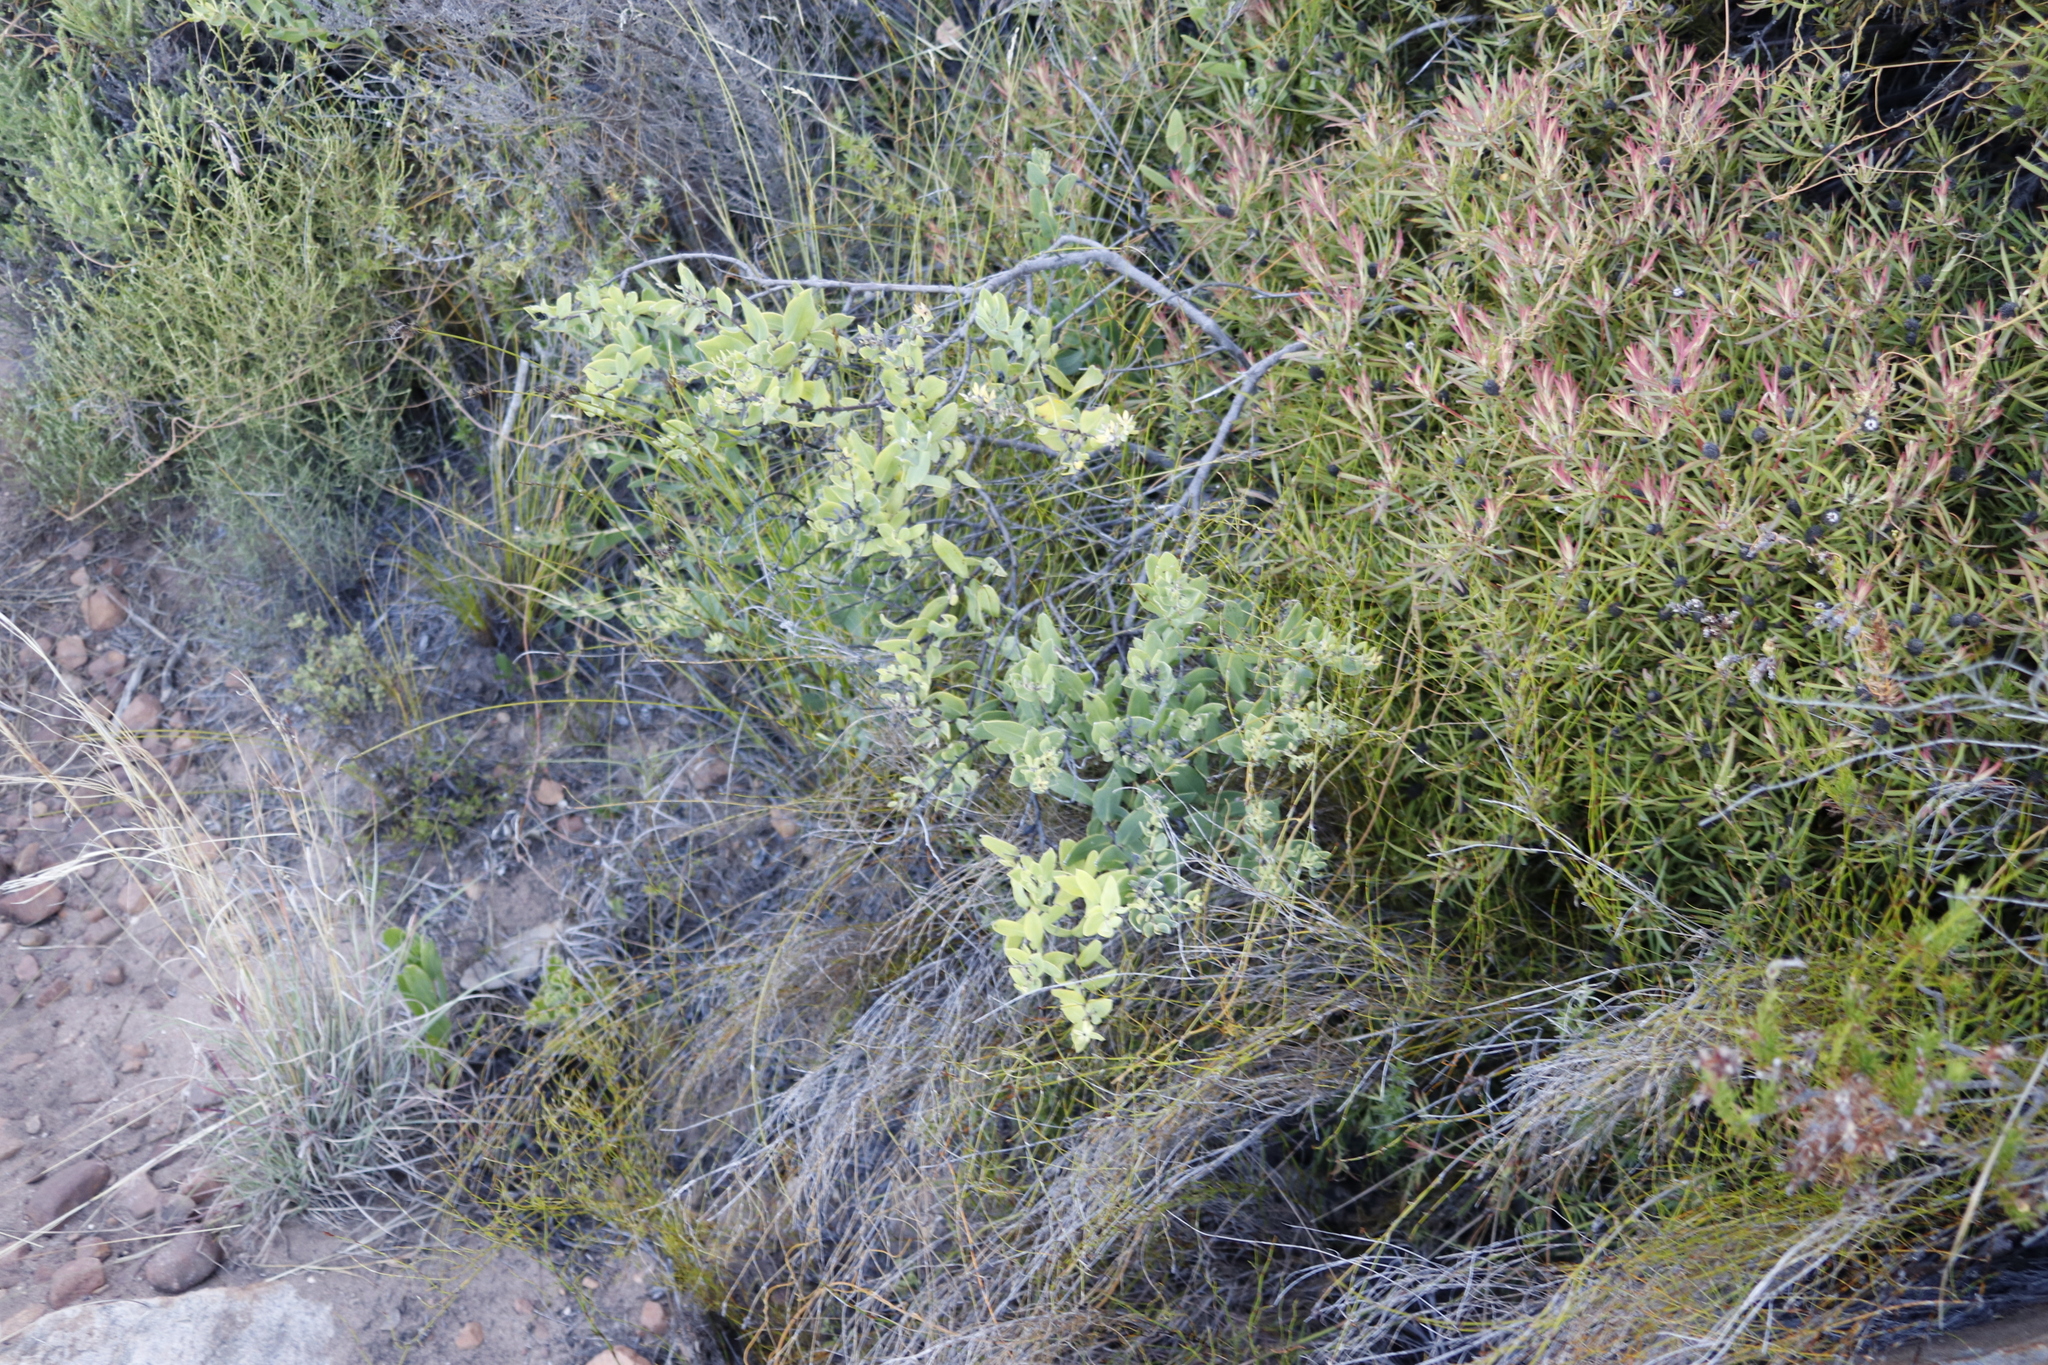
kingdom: Plantae
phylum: Tracheophyta
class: Magnoliopsida
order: Proteales
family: Proteaceae
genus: Leucadendron
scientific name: Leucadendron salignum
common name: Common sunshine conebush
